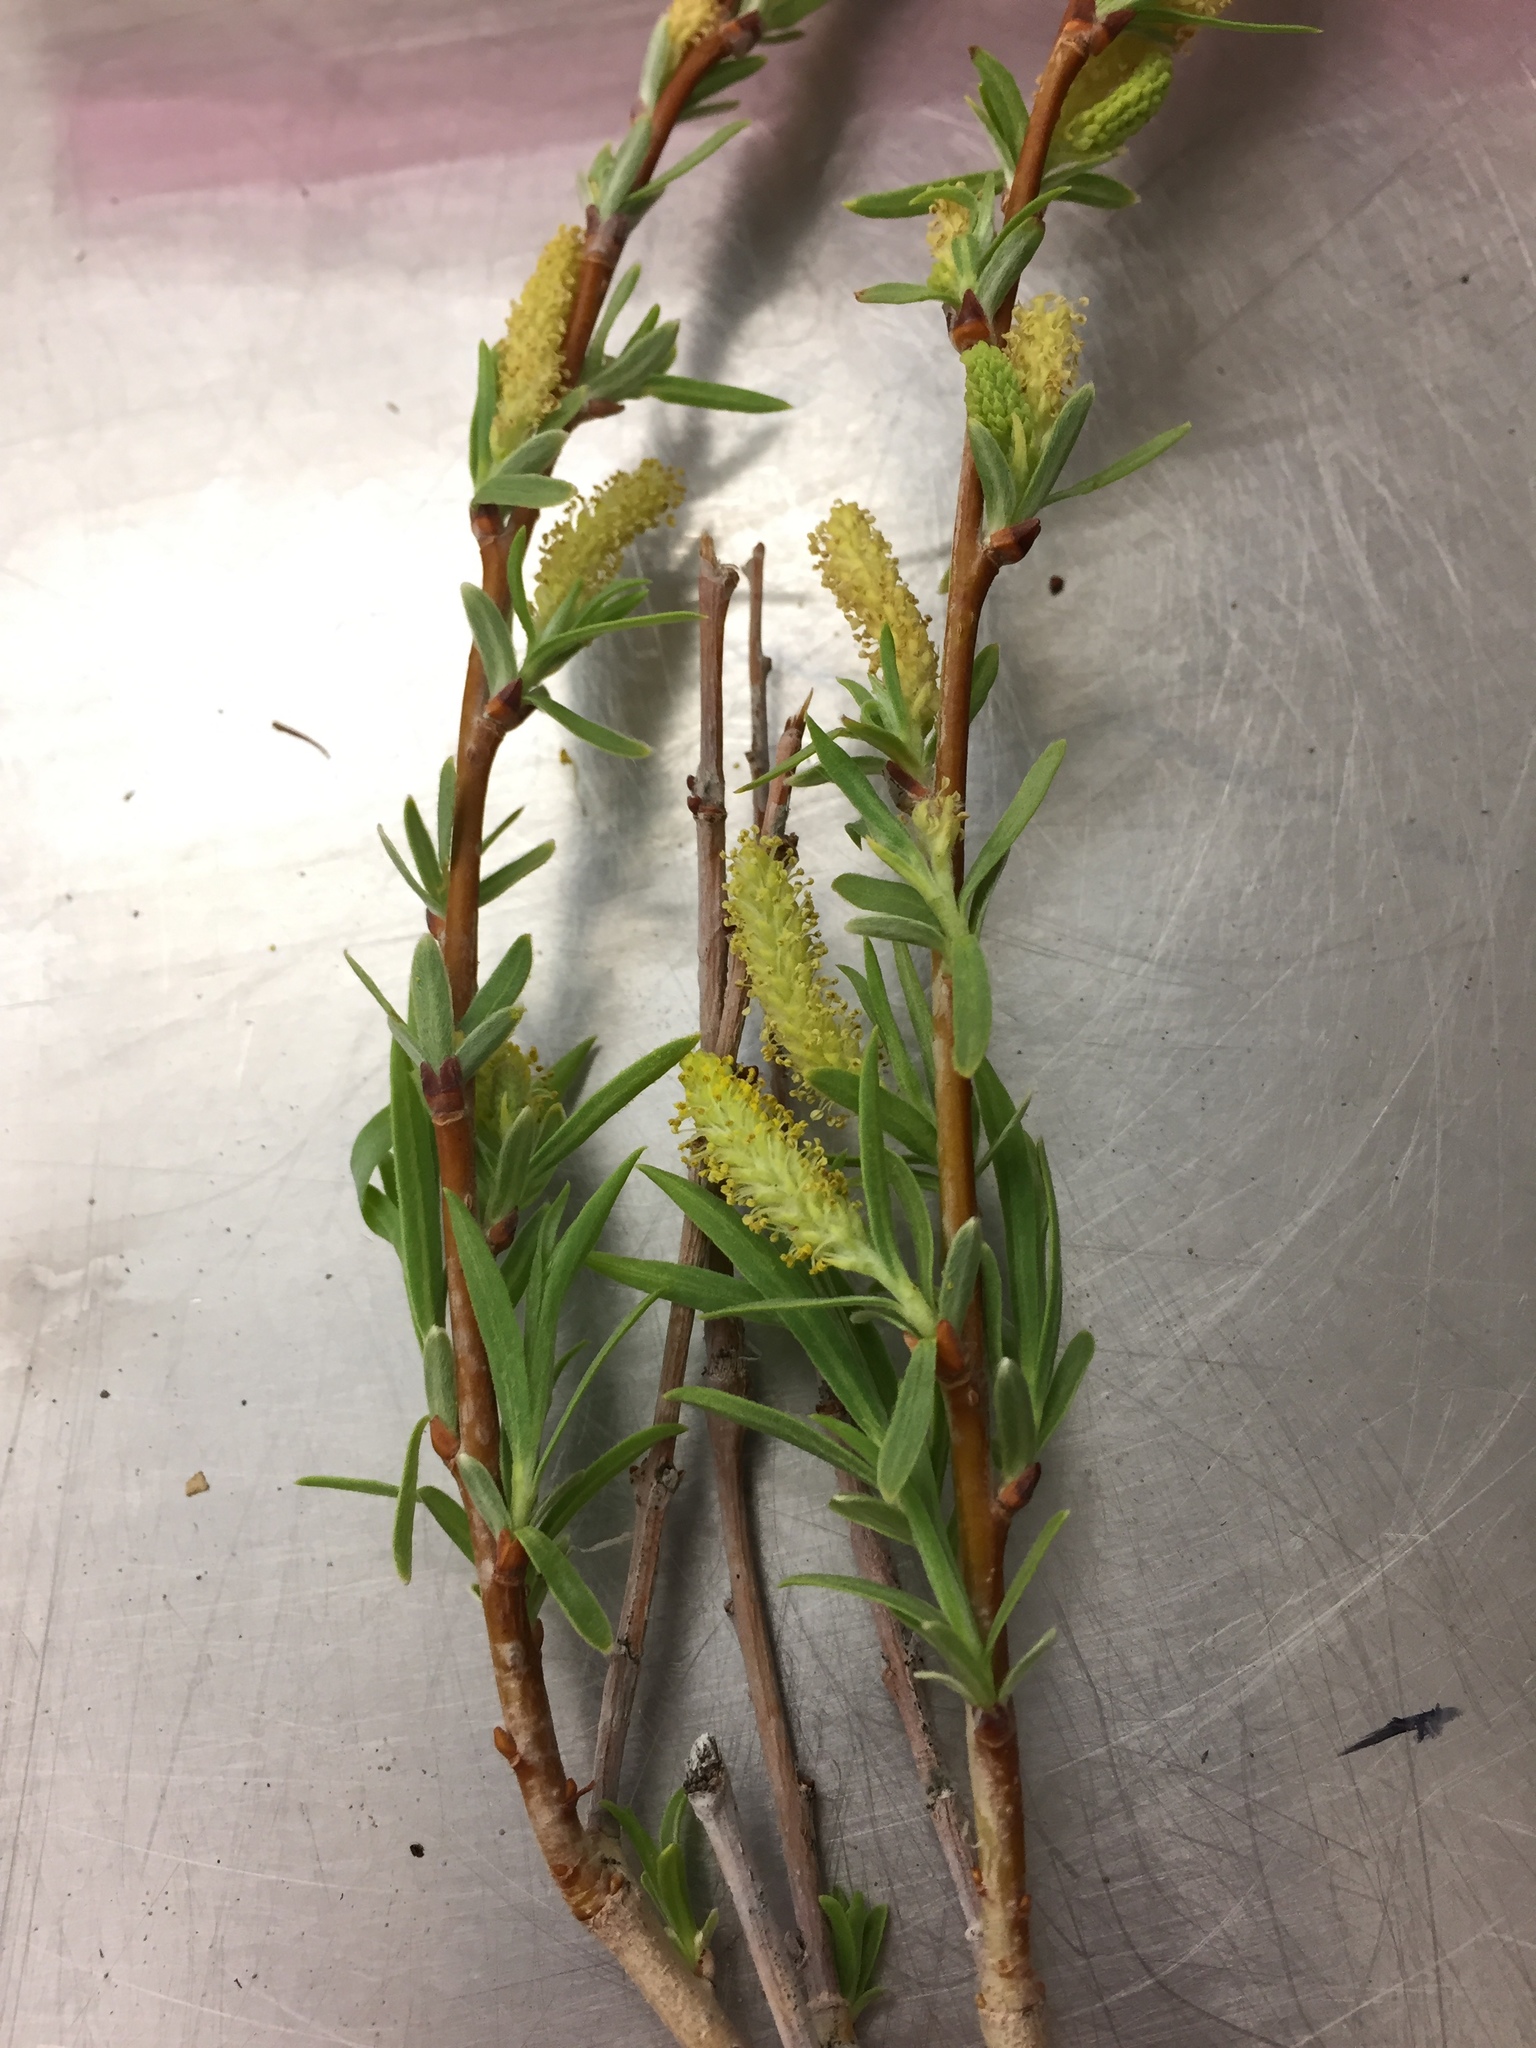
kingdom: Plantae
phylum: Tracheophyta
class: Magnoliopsida
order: Malpighiales
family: Salicaceae
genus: Salix
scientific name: Salix exigua
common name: Coyote willow
